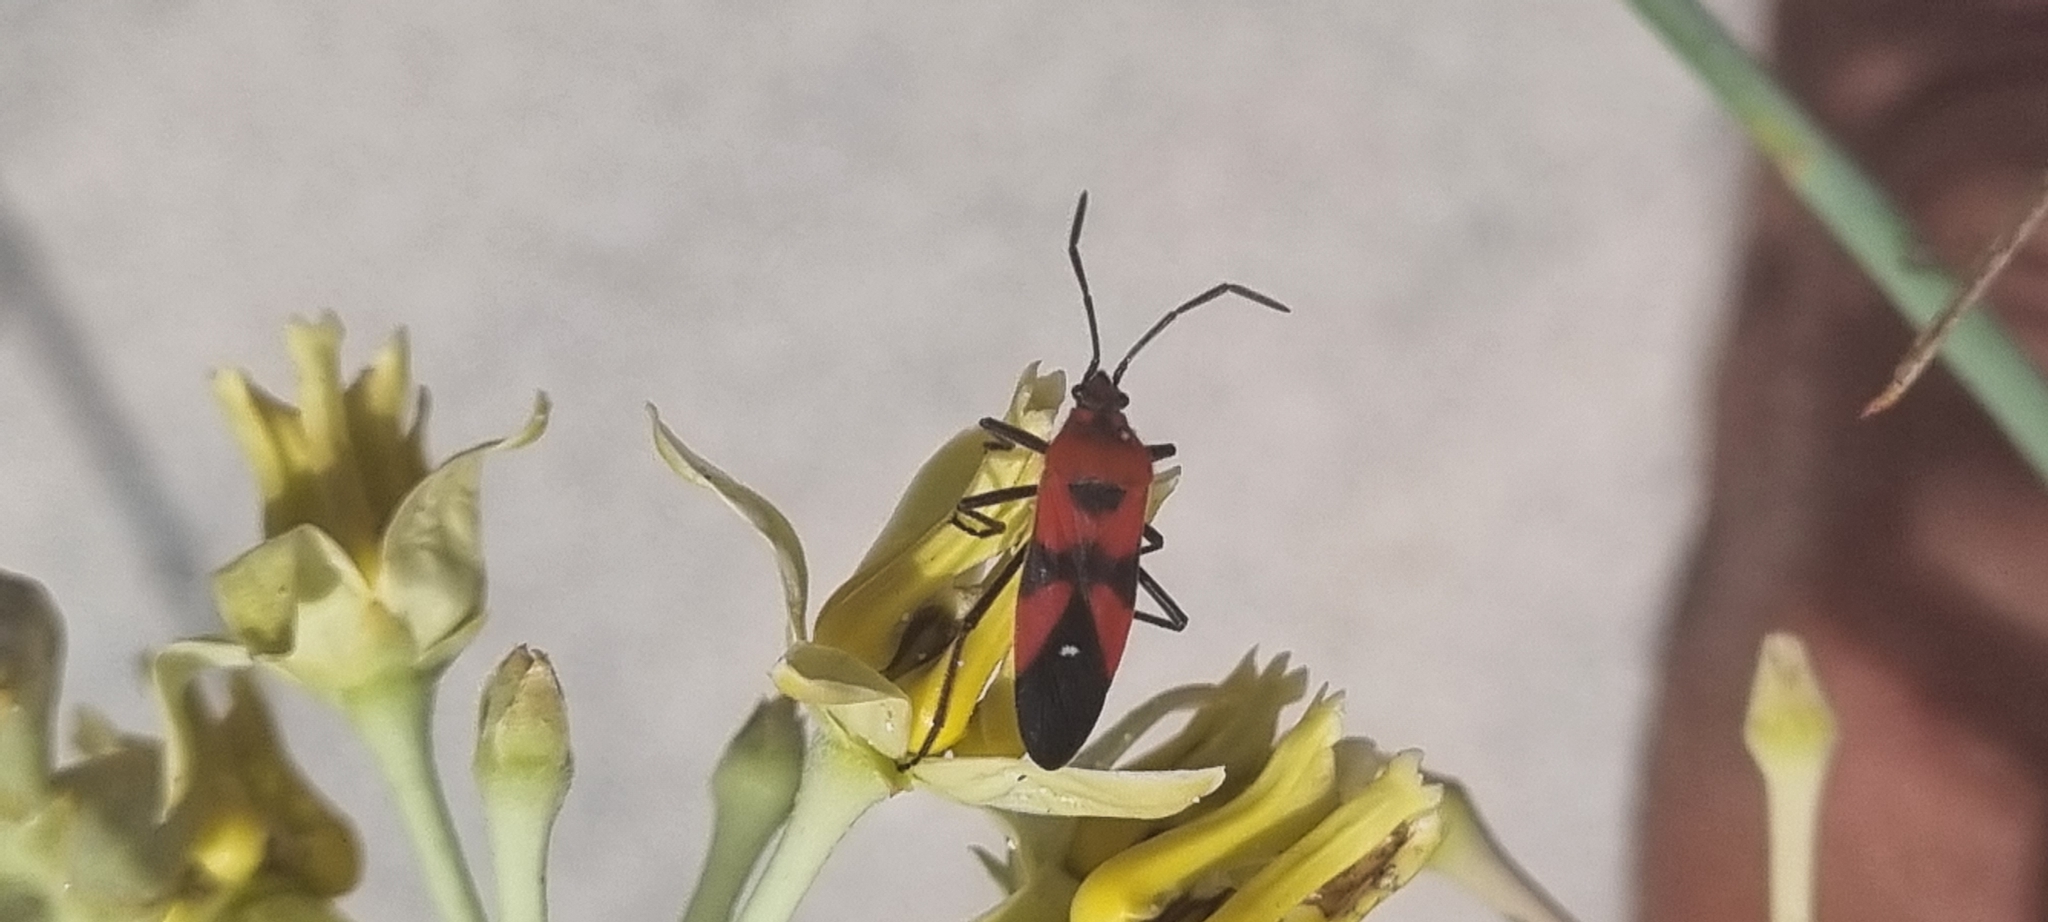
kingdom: Animalia
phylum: Arthropoda
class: Insecta
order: Hemiptera
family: Lygaeidae
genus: Oncopeltus
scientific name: Oncopeltus sanguinolentus
